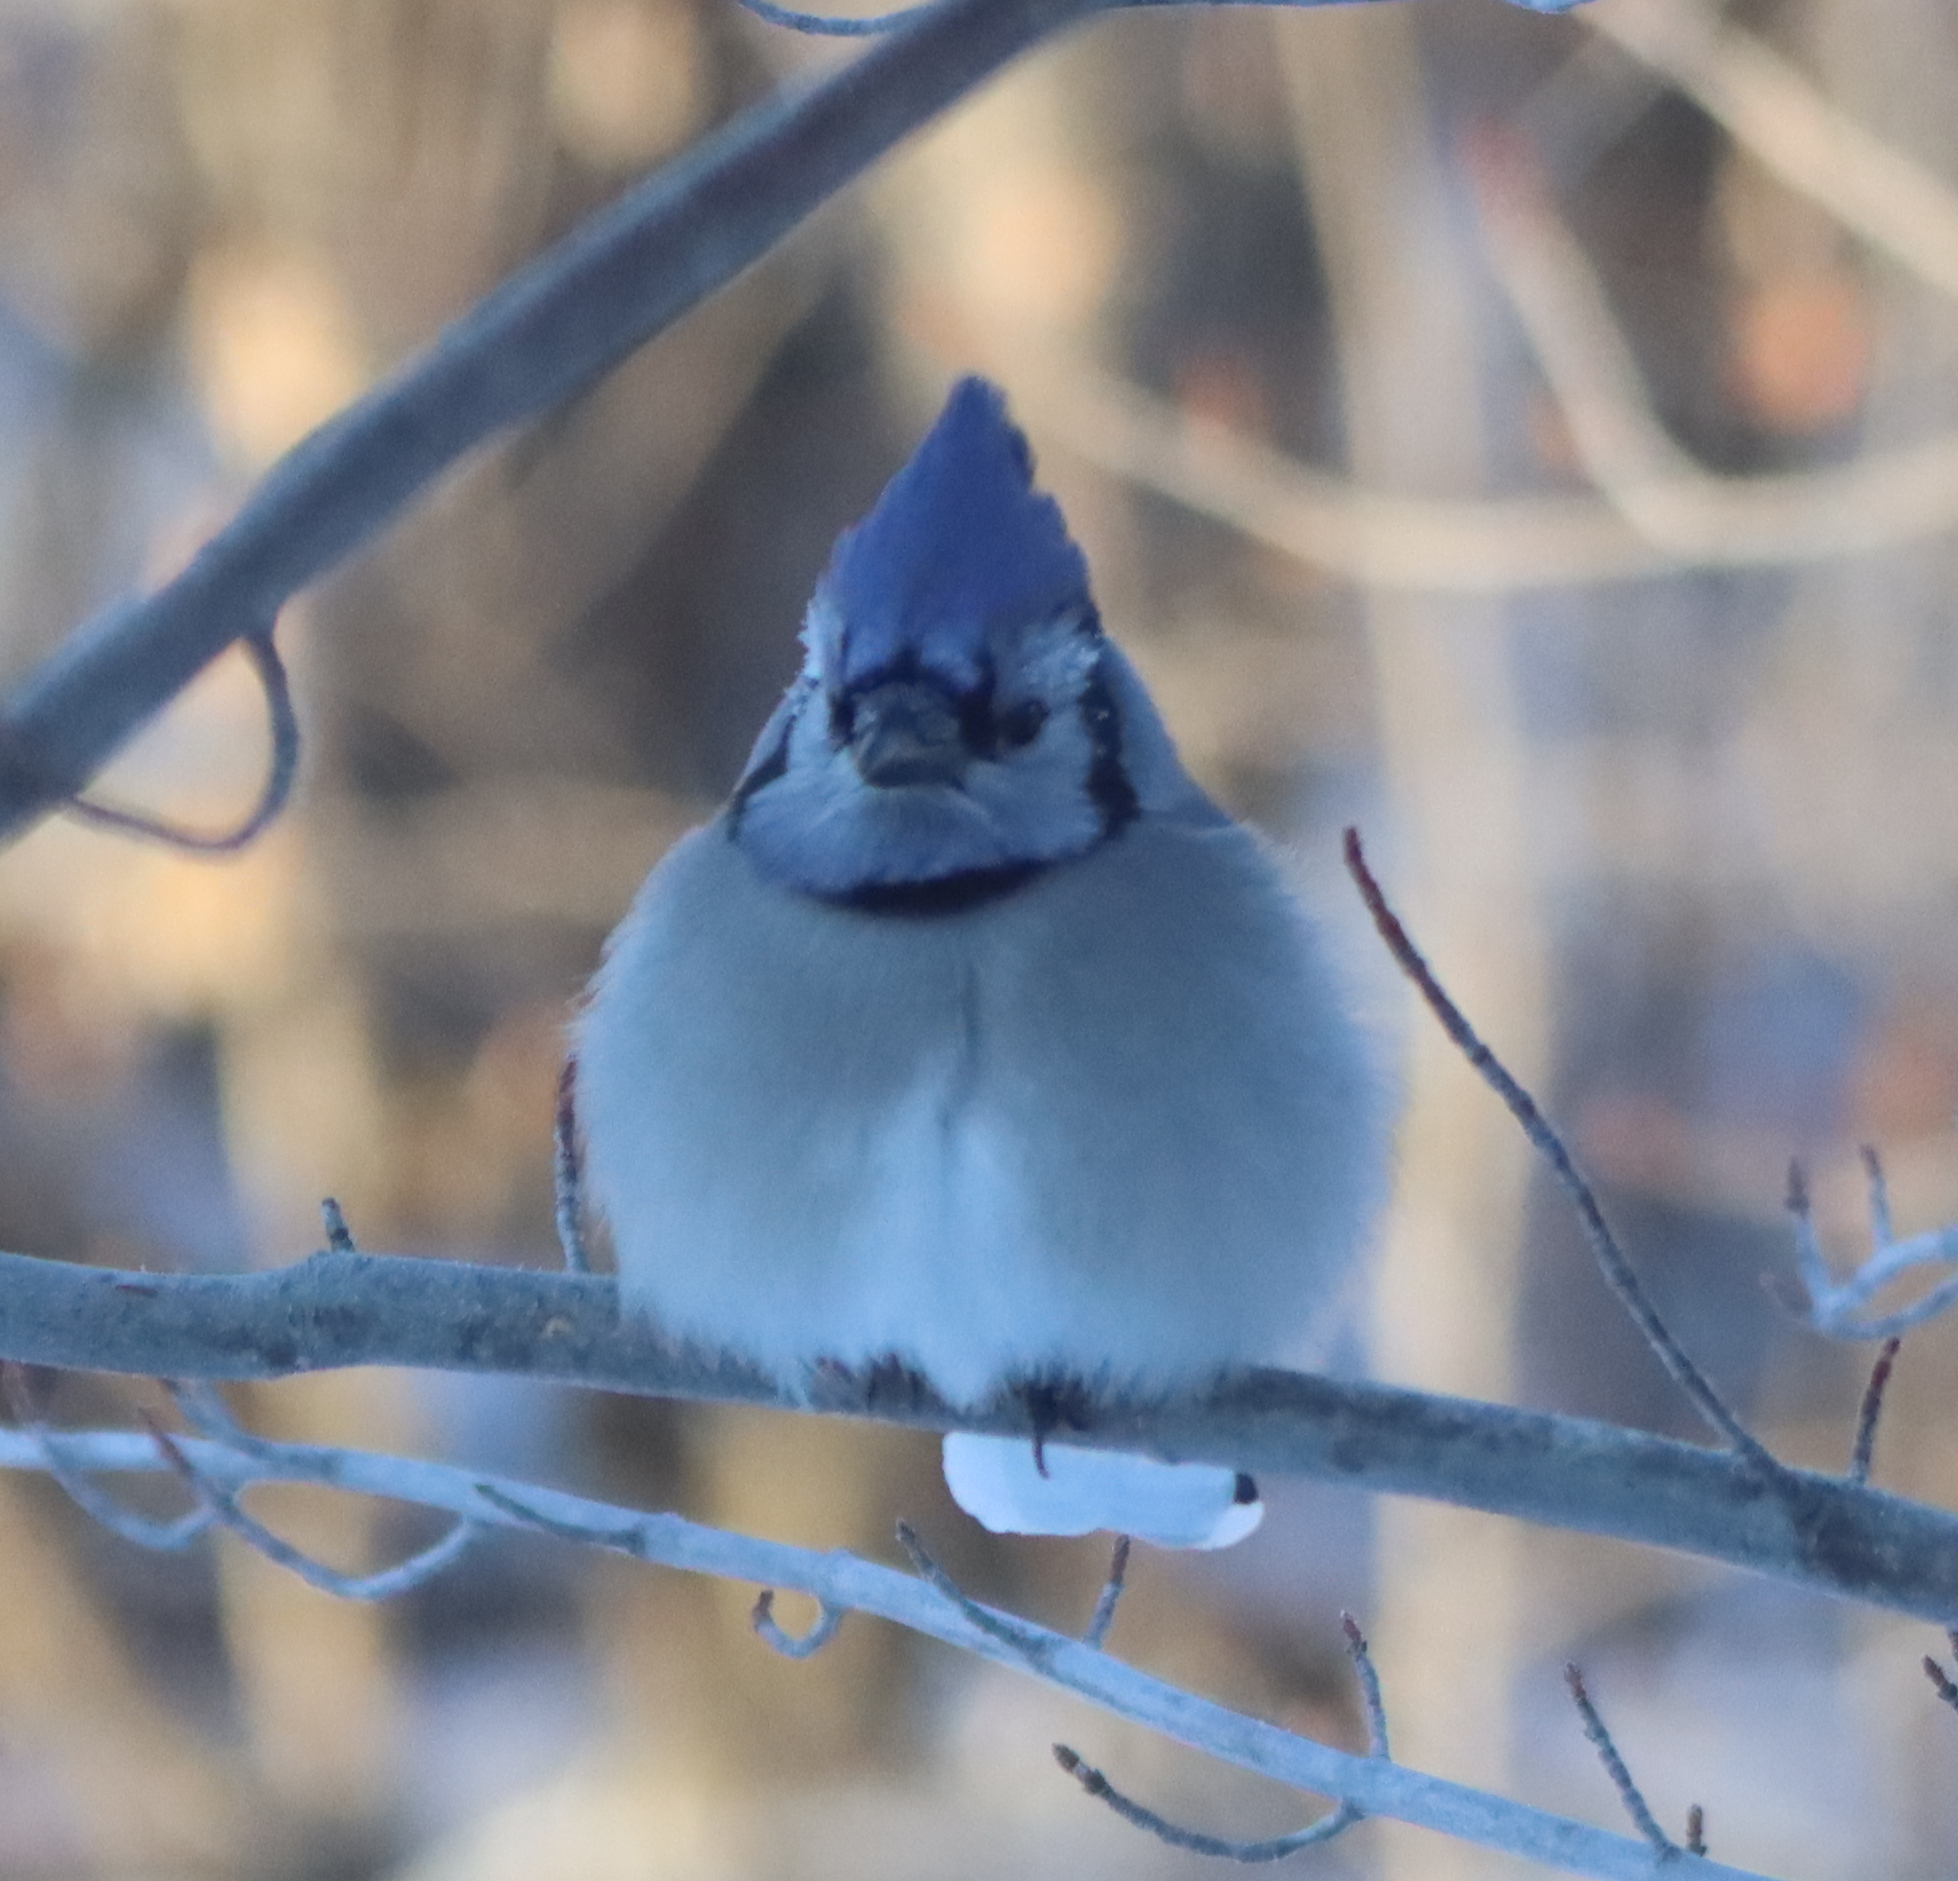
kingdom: Animalia
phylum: Chordata
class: Aves
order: Passeriformes
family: Corvidae
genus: Cyanocitta
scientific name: Cyanocitta cristata
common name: Blue jay
